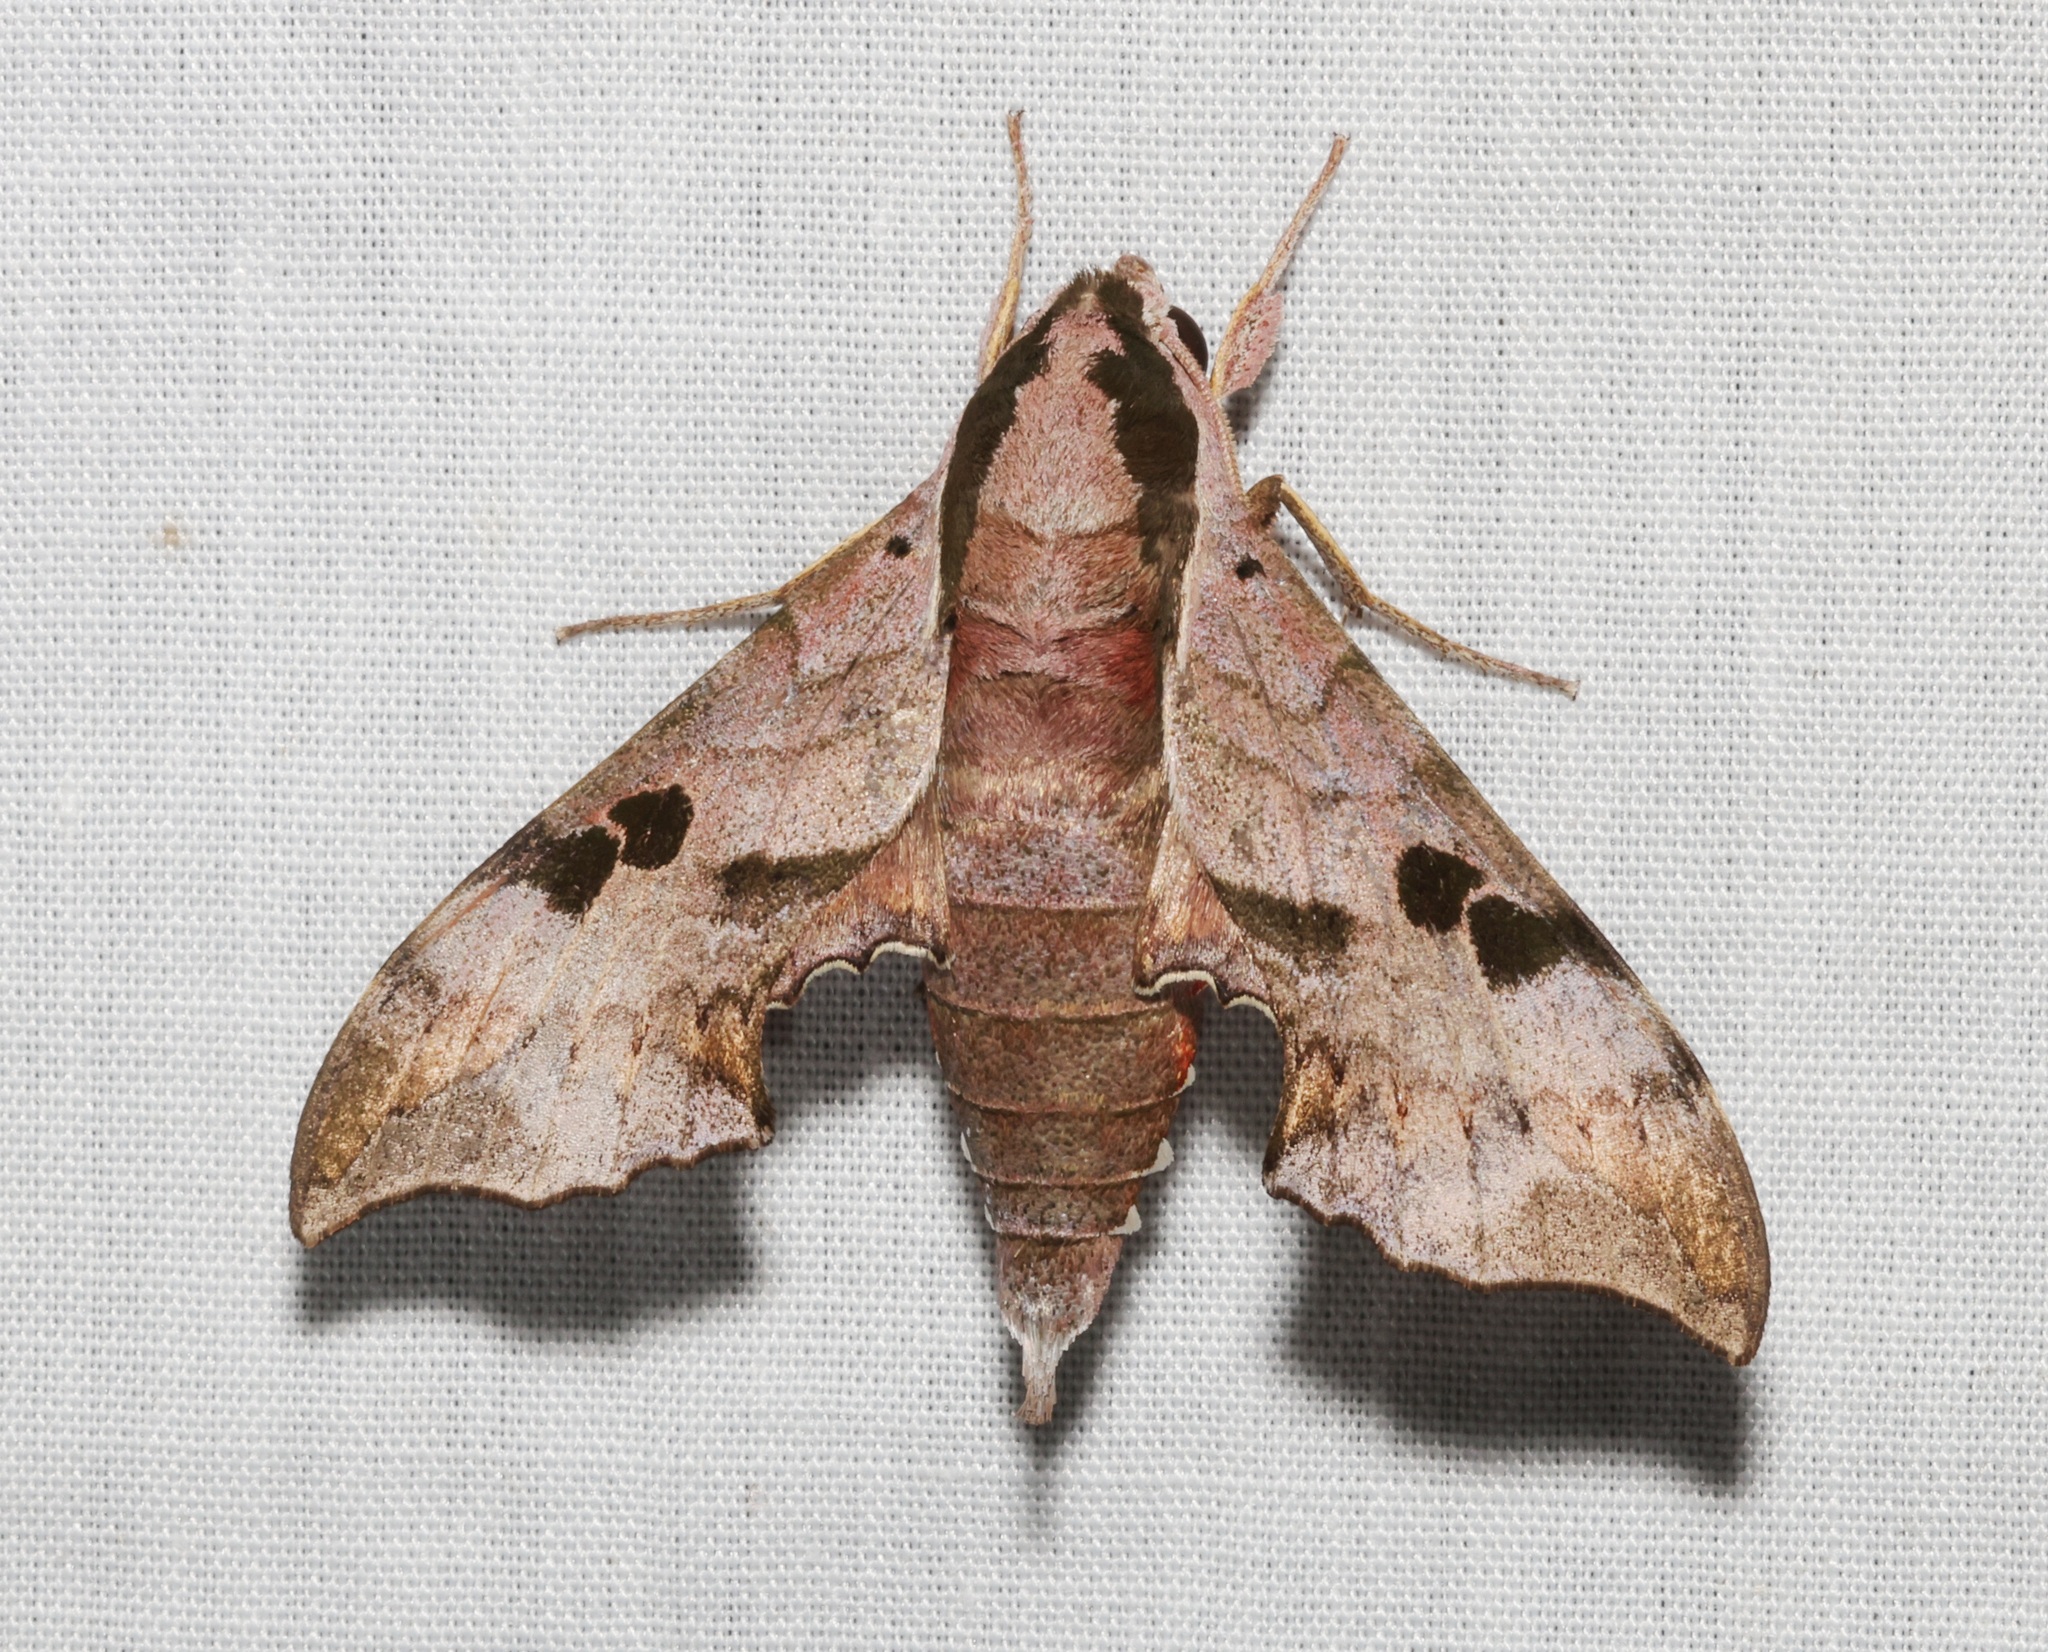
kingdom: Animalia
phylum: Arthropoda
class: Insecta
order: Lepidoptera
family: Sphingidae
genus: Enpinanga
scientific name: Enpinanga assamensis
